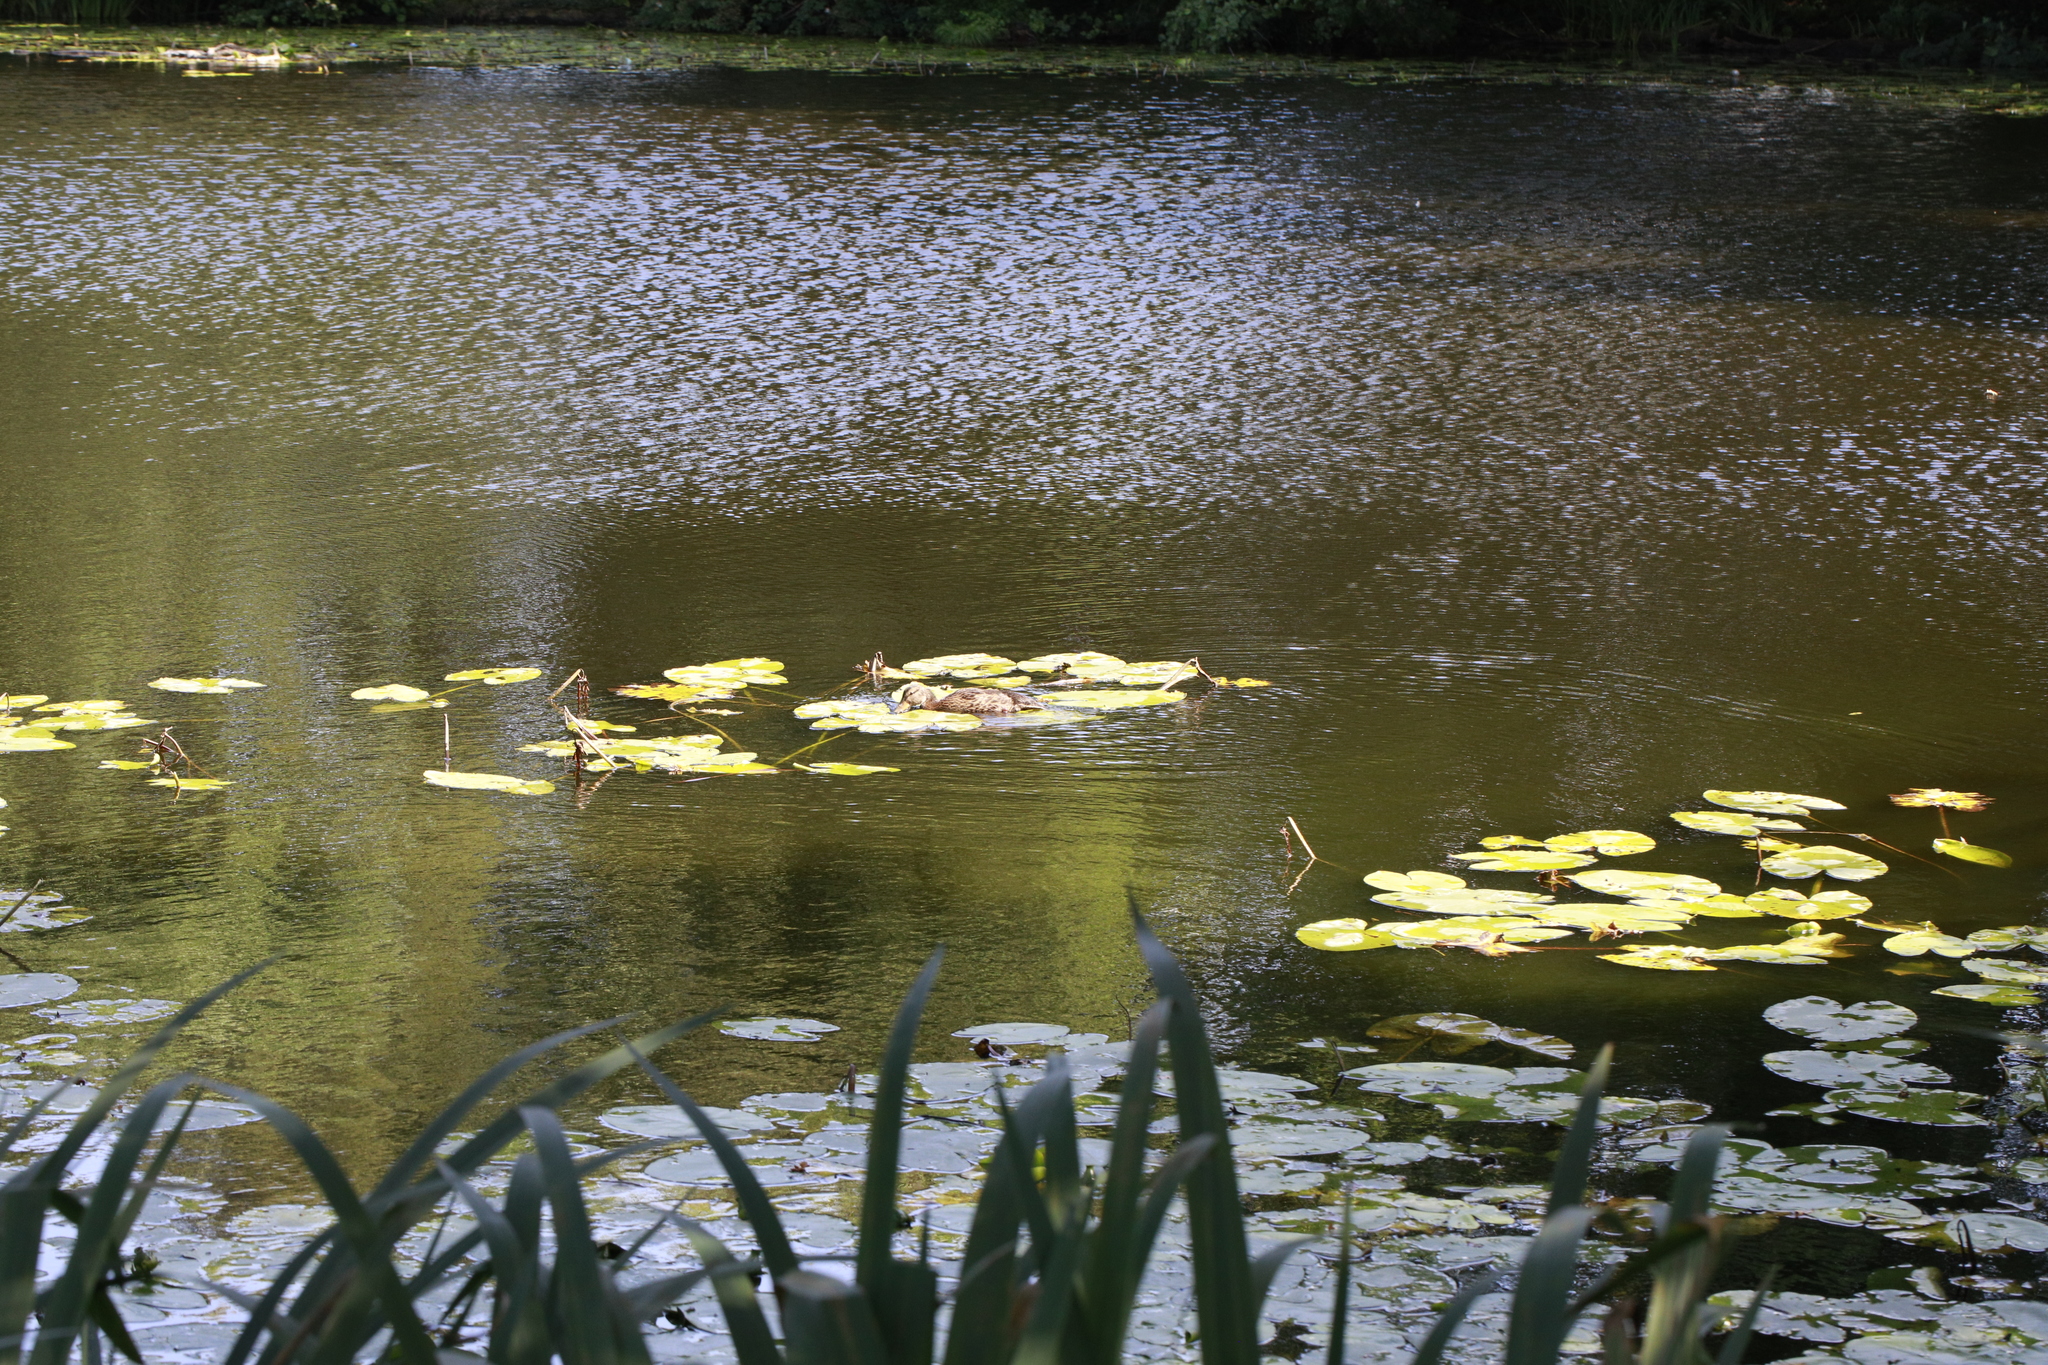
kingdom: Animalia
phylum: Chordata
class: Aves
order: Anseriformes
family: Anatidae
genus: Anas
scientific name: Anas platyrhynchos
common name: Mallard
